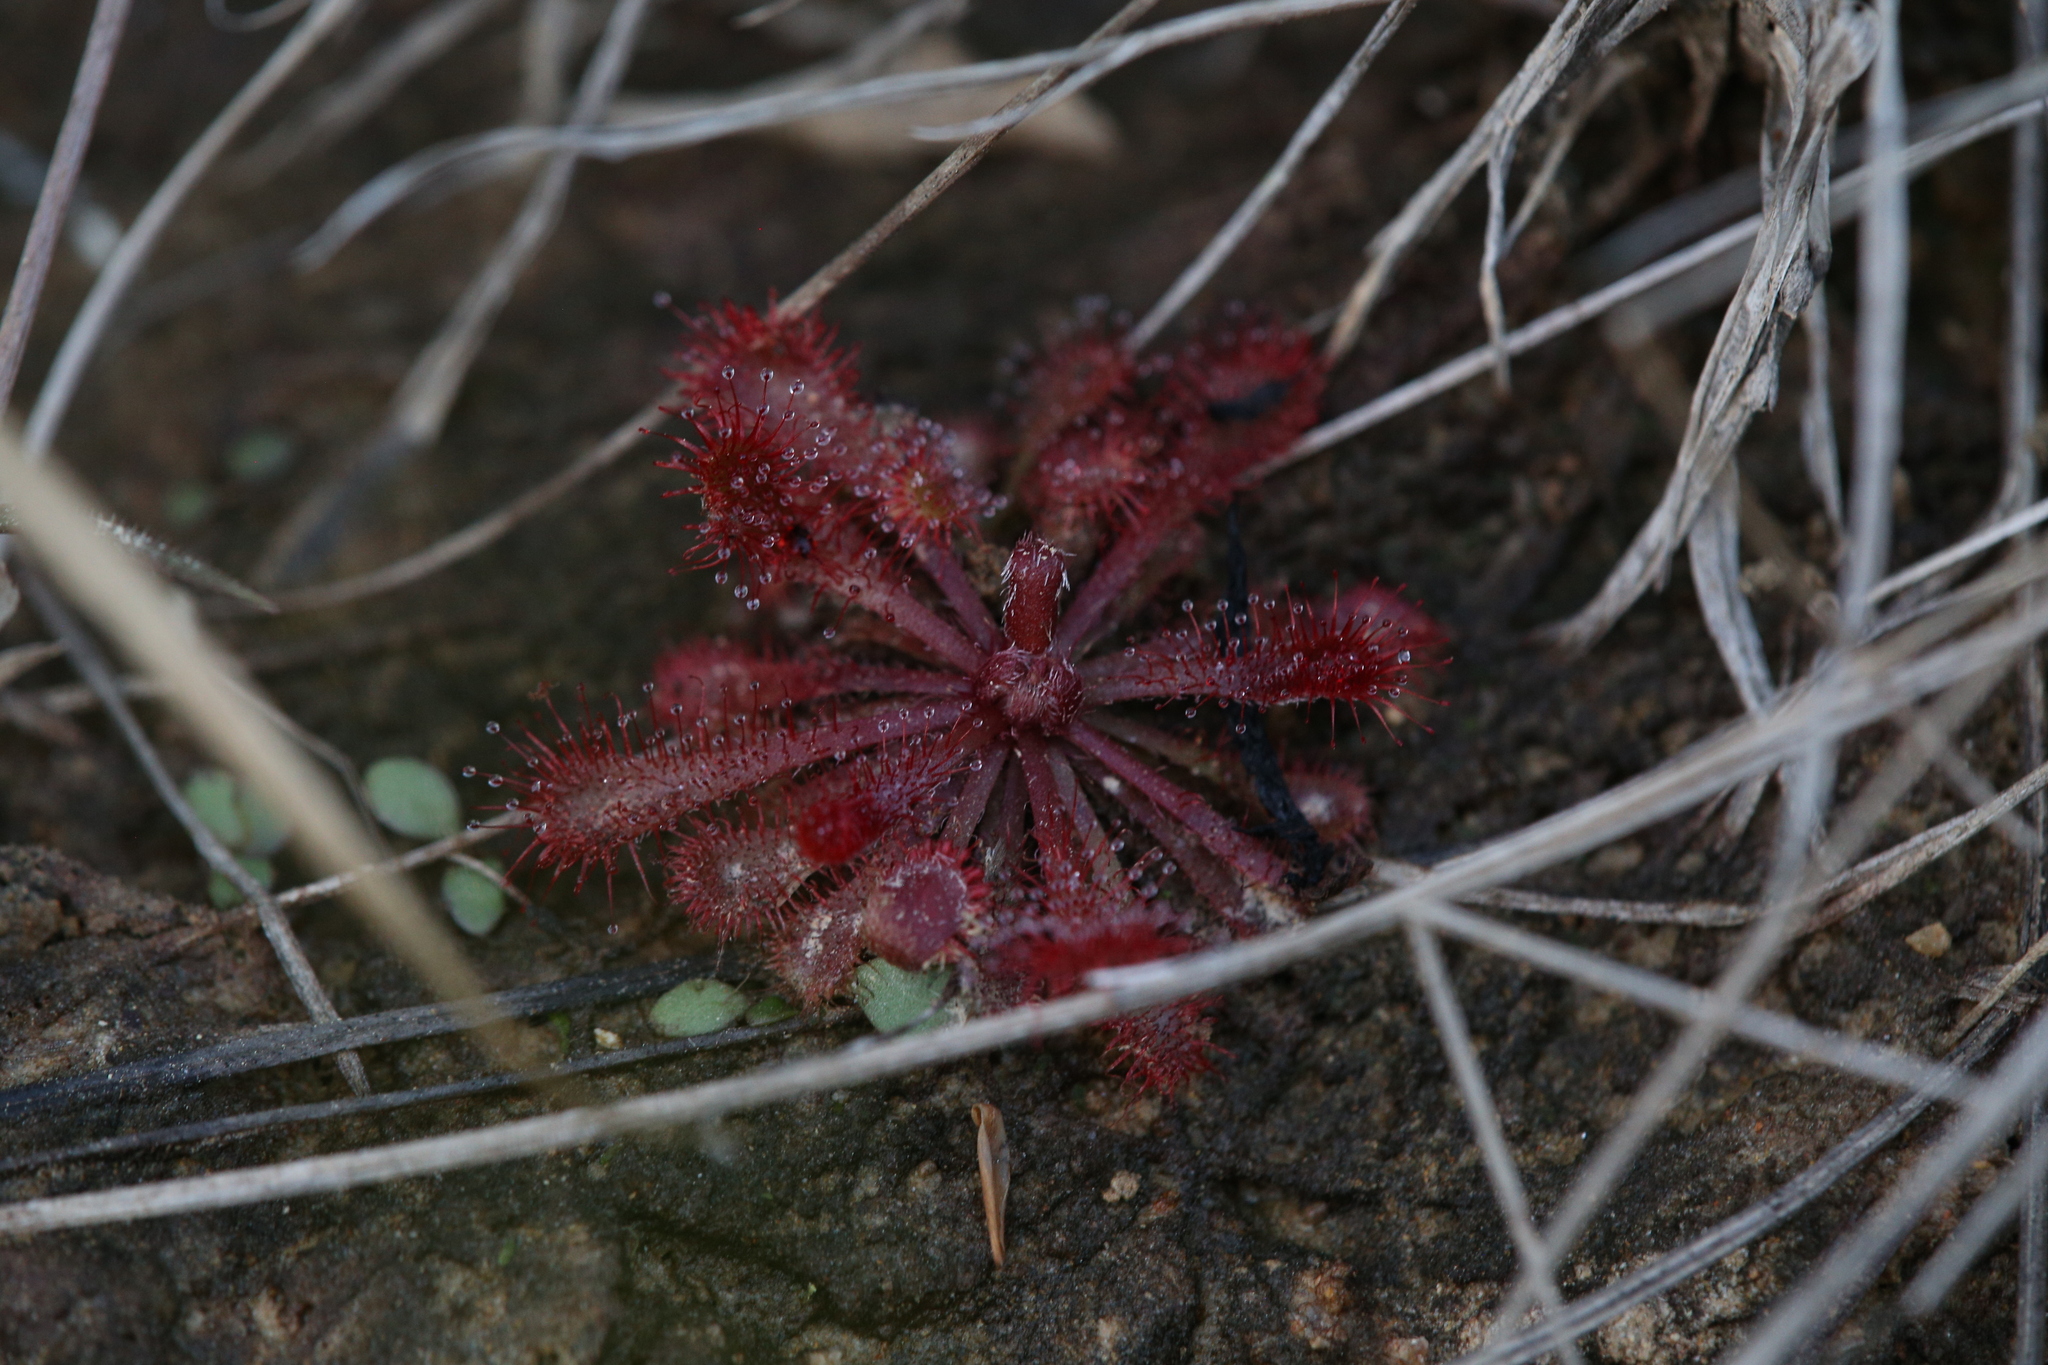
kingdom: Plantae
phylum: Tracheophyta
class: Magnoliopsida
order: Caryophyllales
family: Droseraceae
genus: Drosera
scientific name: Drosera spatulata
